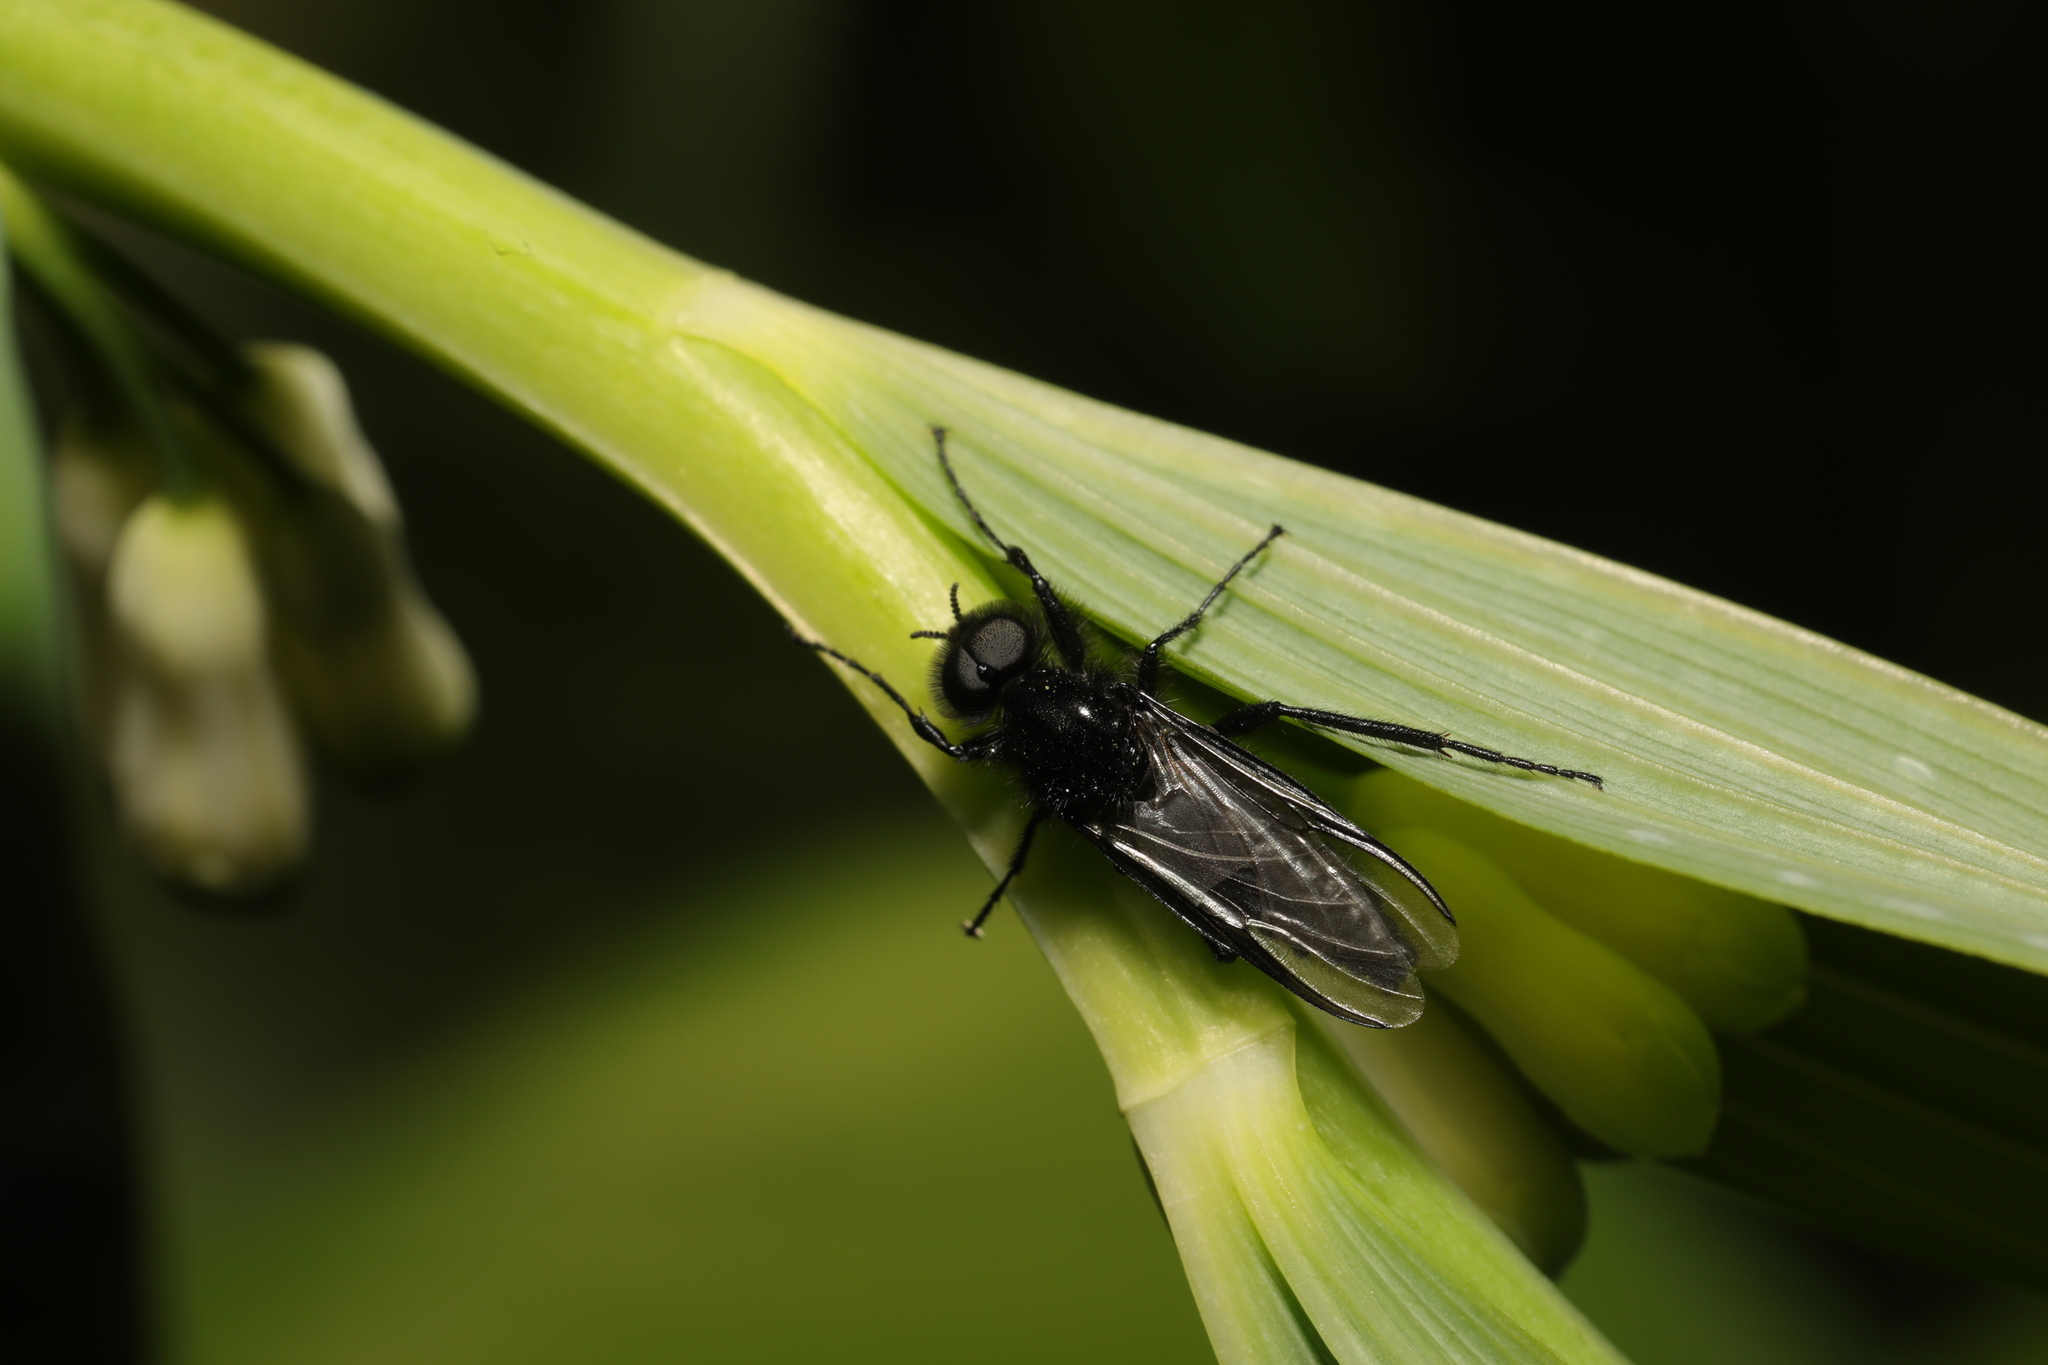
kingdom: Animalia
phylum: Arthropoda
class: Insecta
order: Diptera
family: Bibionidae
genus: Bibio
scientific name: Bibio marci
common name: St marks fly
